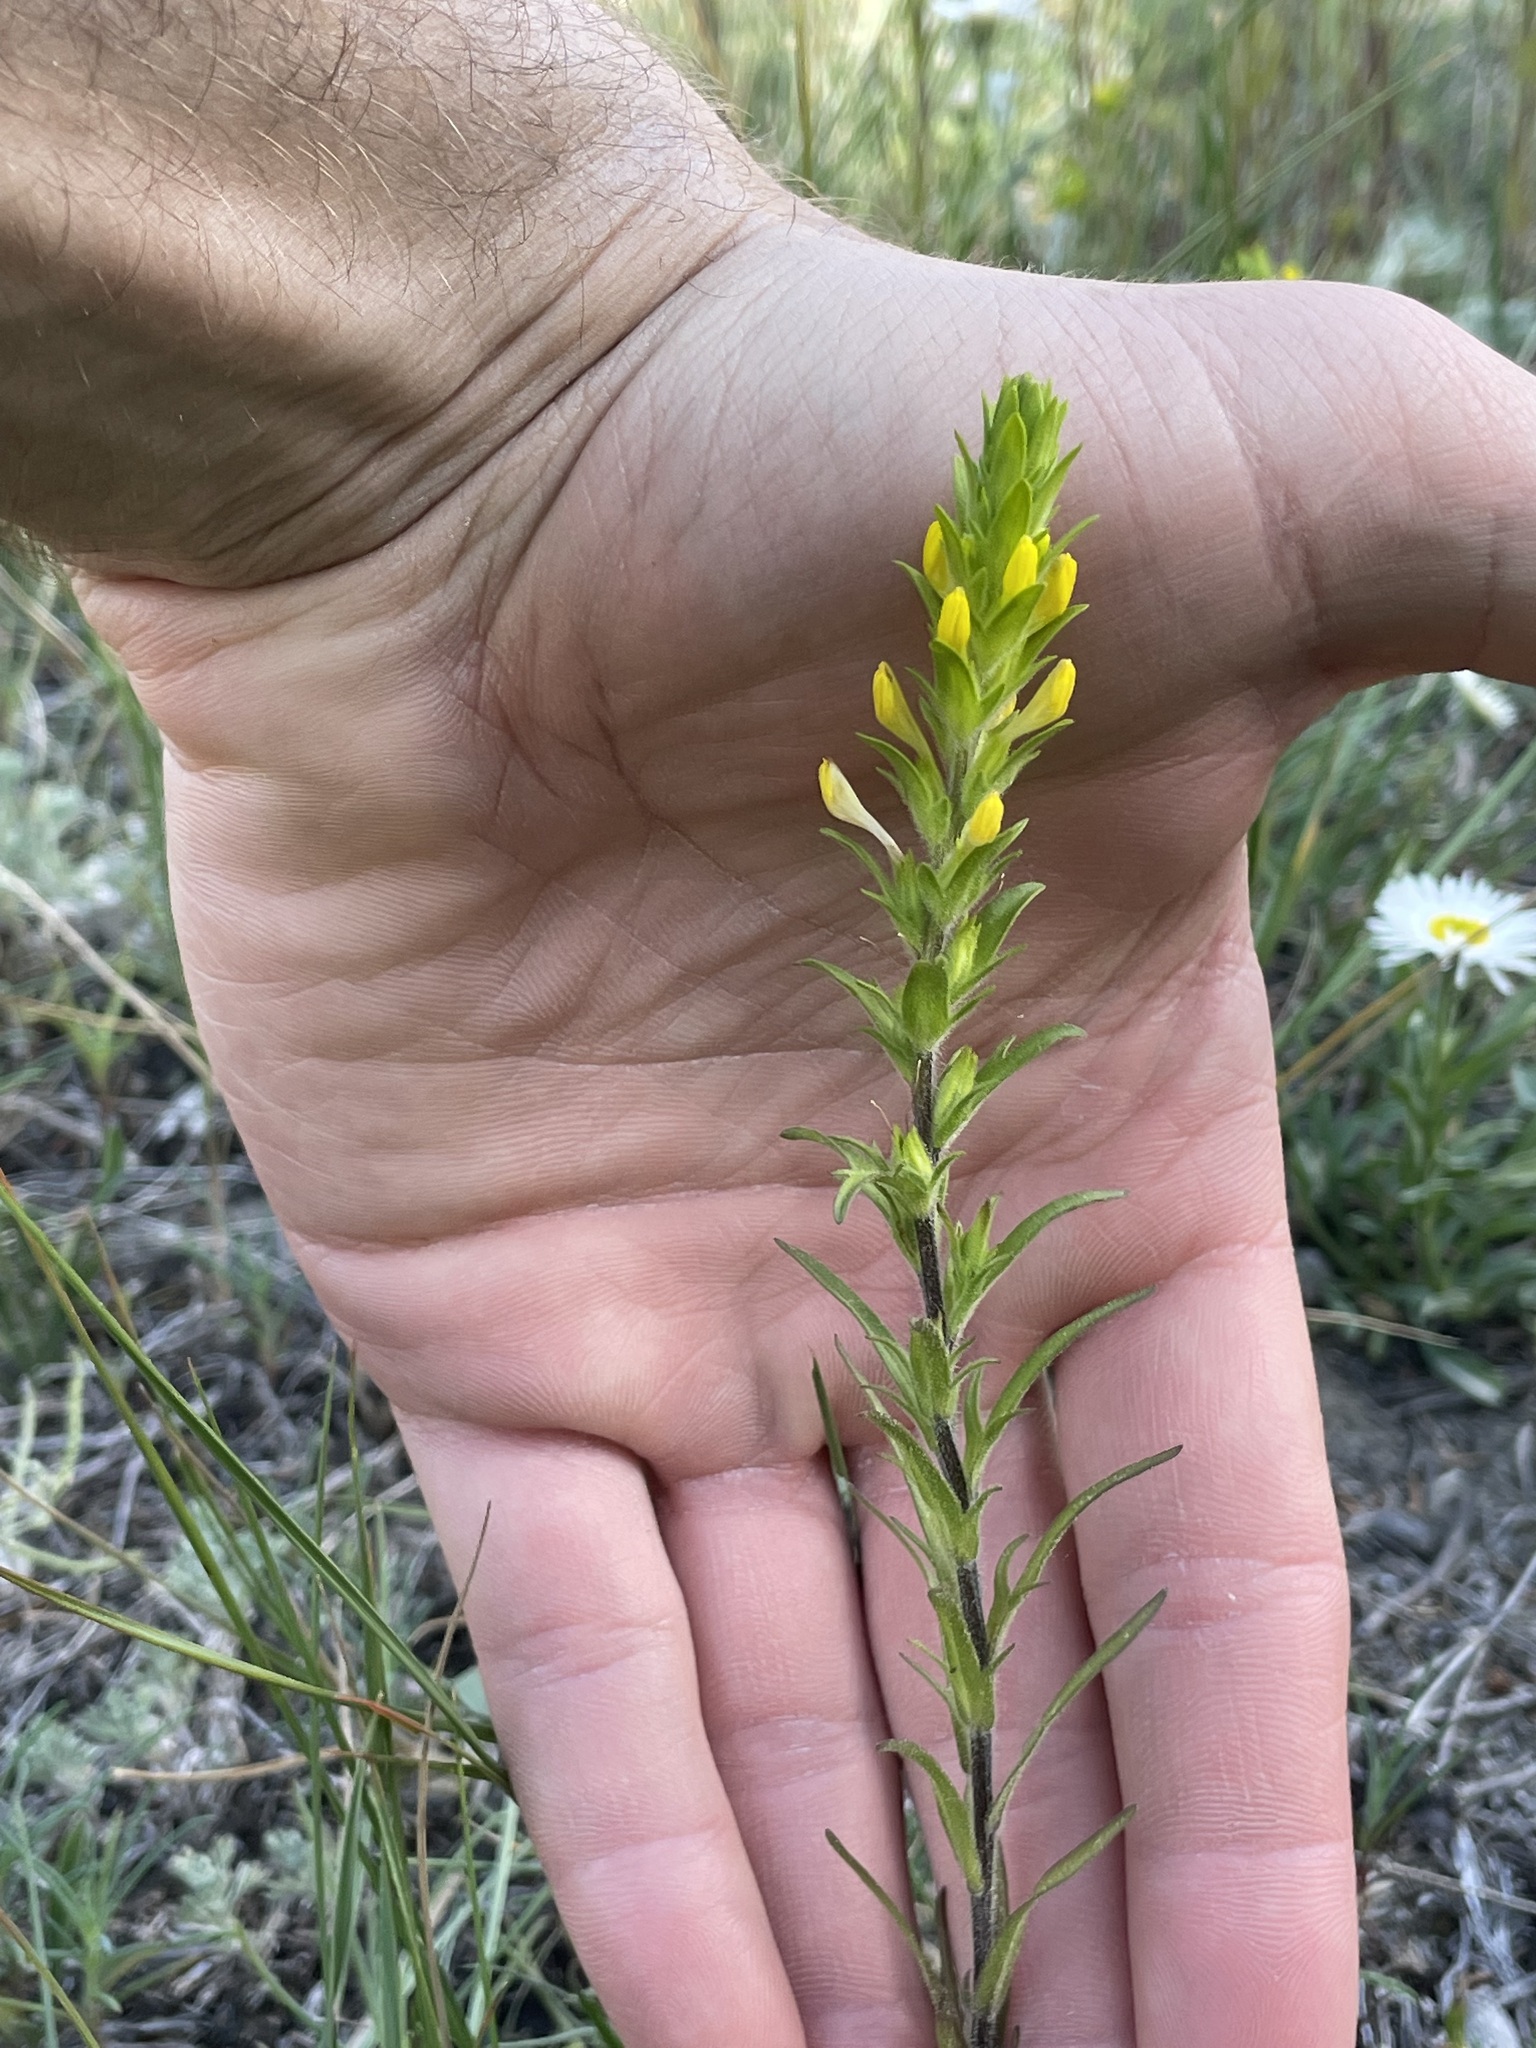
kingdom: Plantae
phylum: Tracheophyta
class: Magnoliopsida
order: Lamiales
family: Orobanchaceae
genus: Orthocarpus
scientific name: Orthocarpus luteus
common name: Golden-tongue owl's-clover
